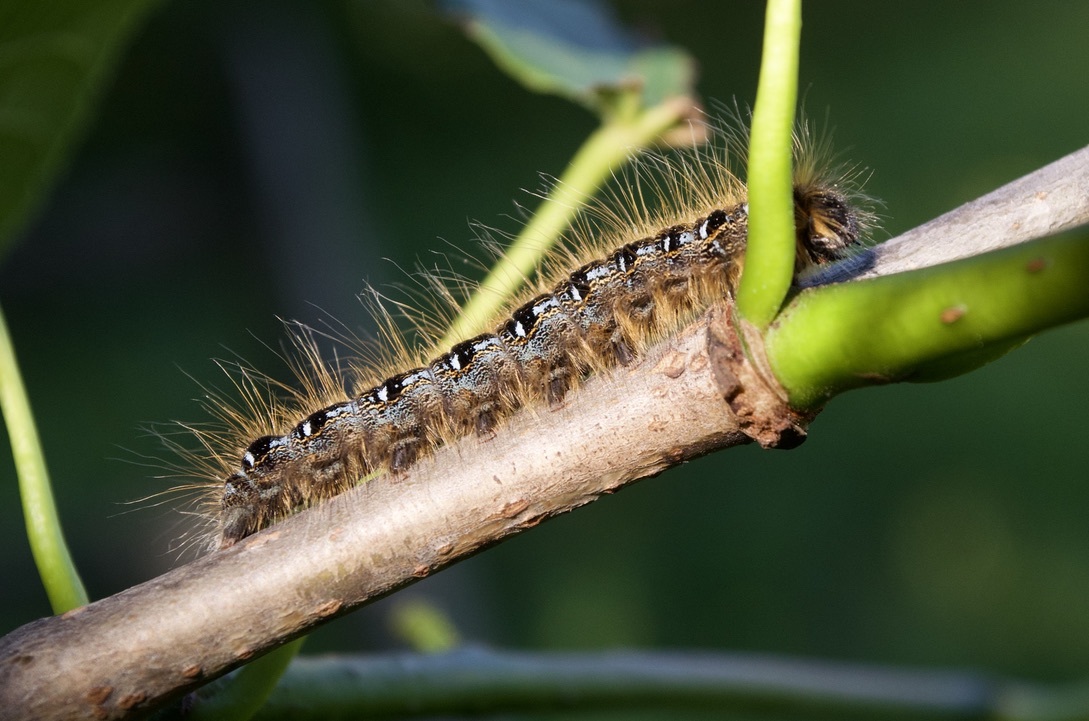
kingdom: Animalia
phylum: Arthropoda
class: Insecta
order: Lepidoptera
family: Lasiocampidae
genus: Malacosoma
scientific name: Malacosoma americana
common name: Eastern tent caterpillar moth
